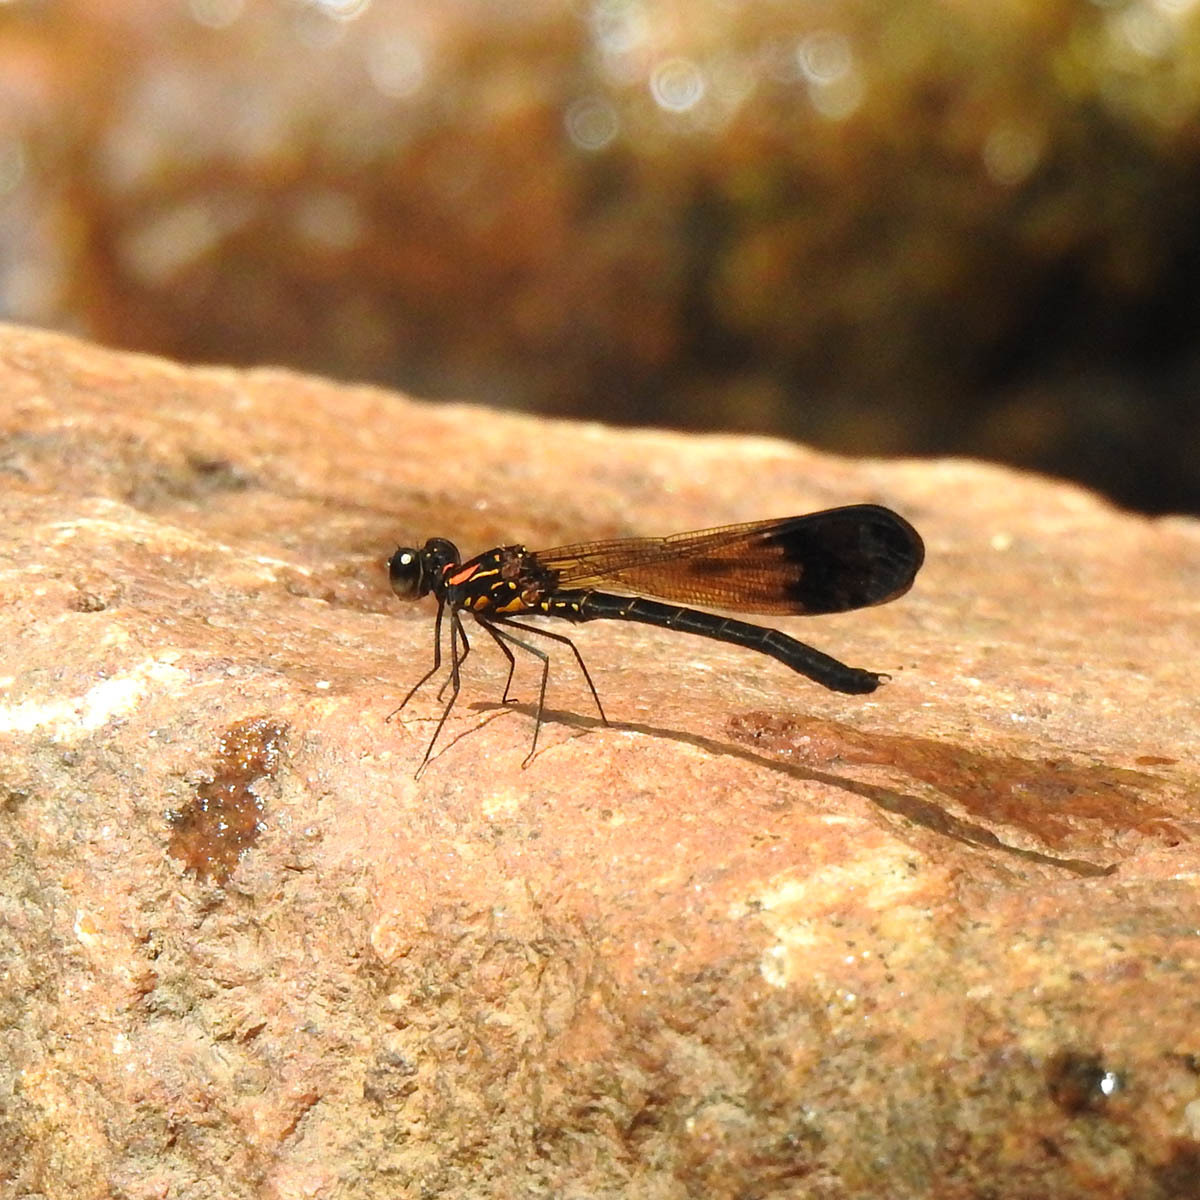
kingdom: Animalia
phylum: Arthropoda
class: Insecta
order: Odonata
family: Chlorocyphidae
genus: Heliocypha
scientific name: Heliocypha bisignata
